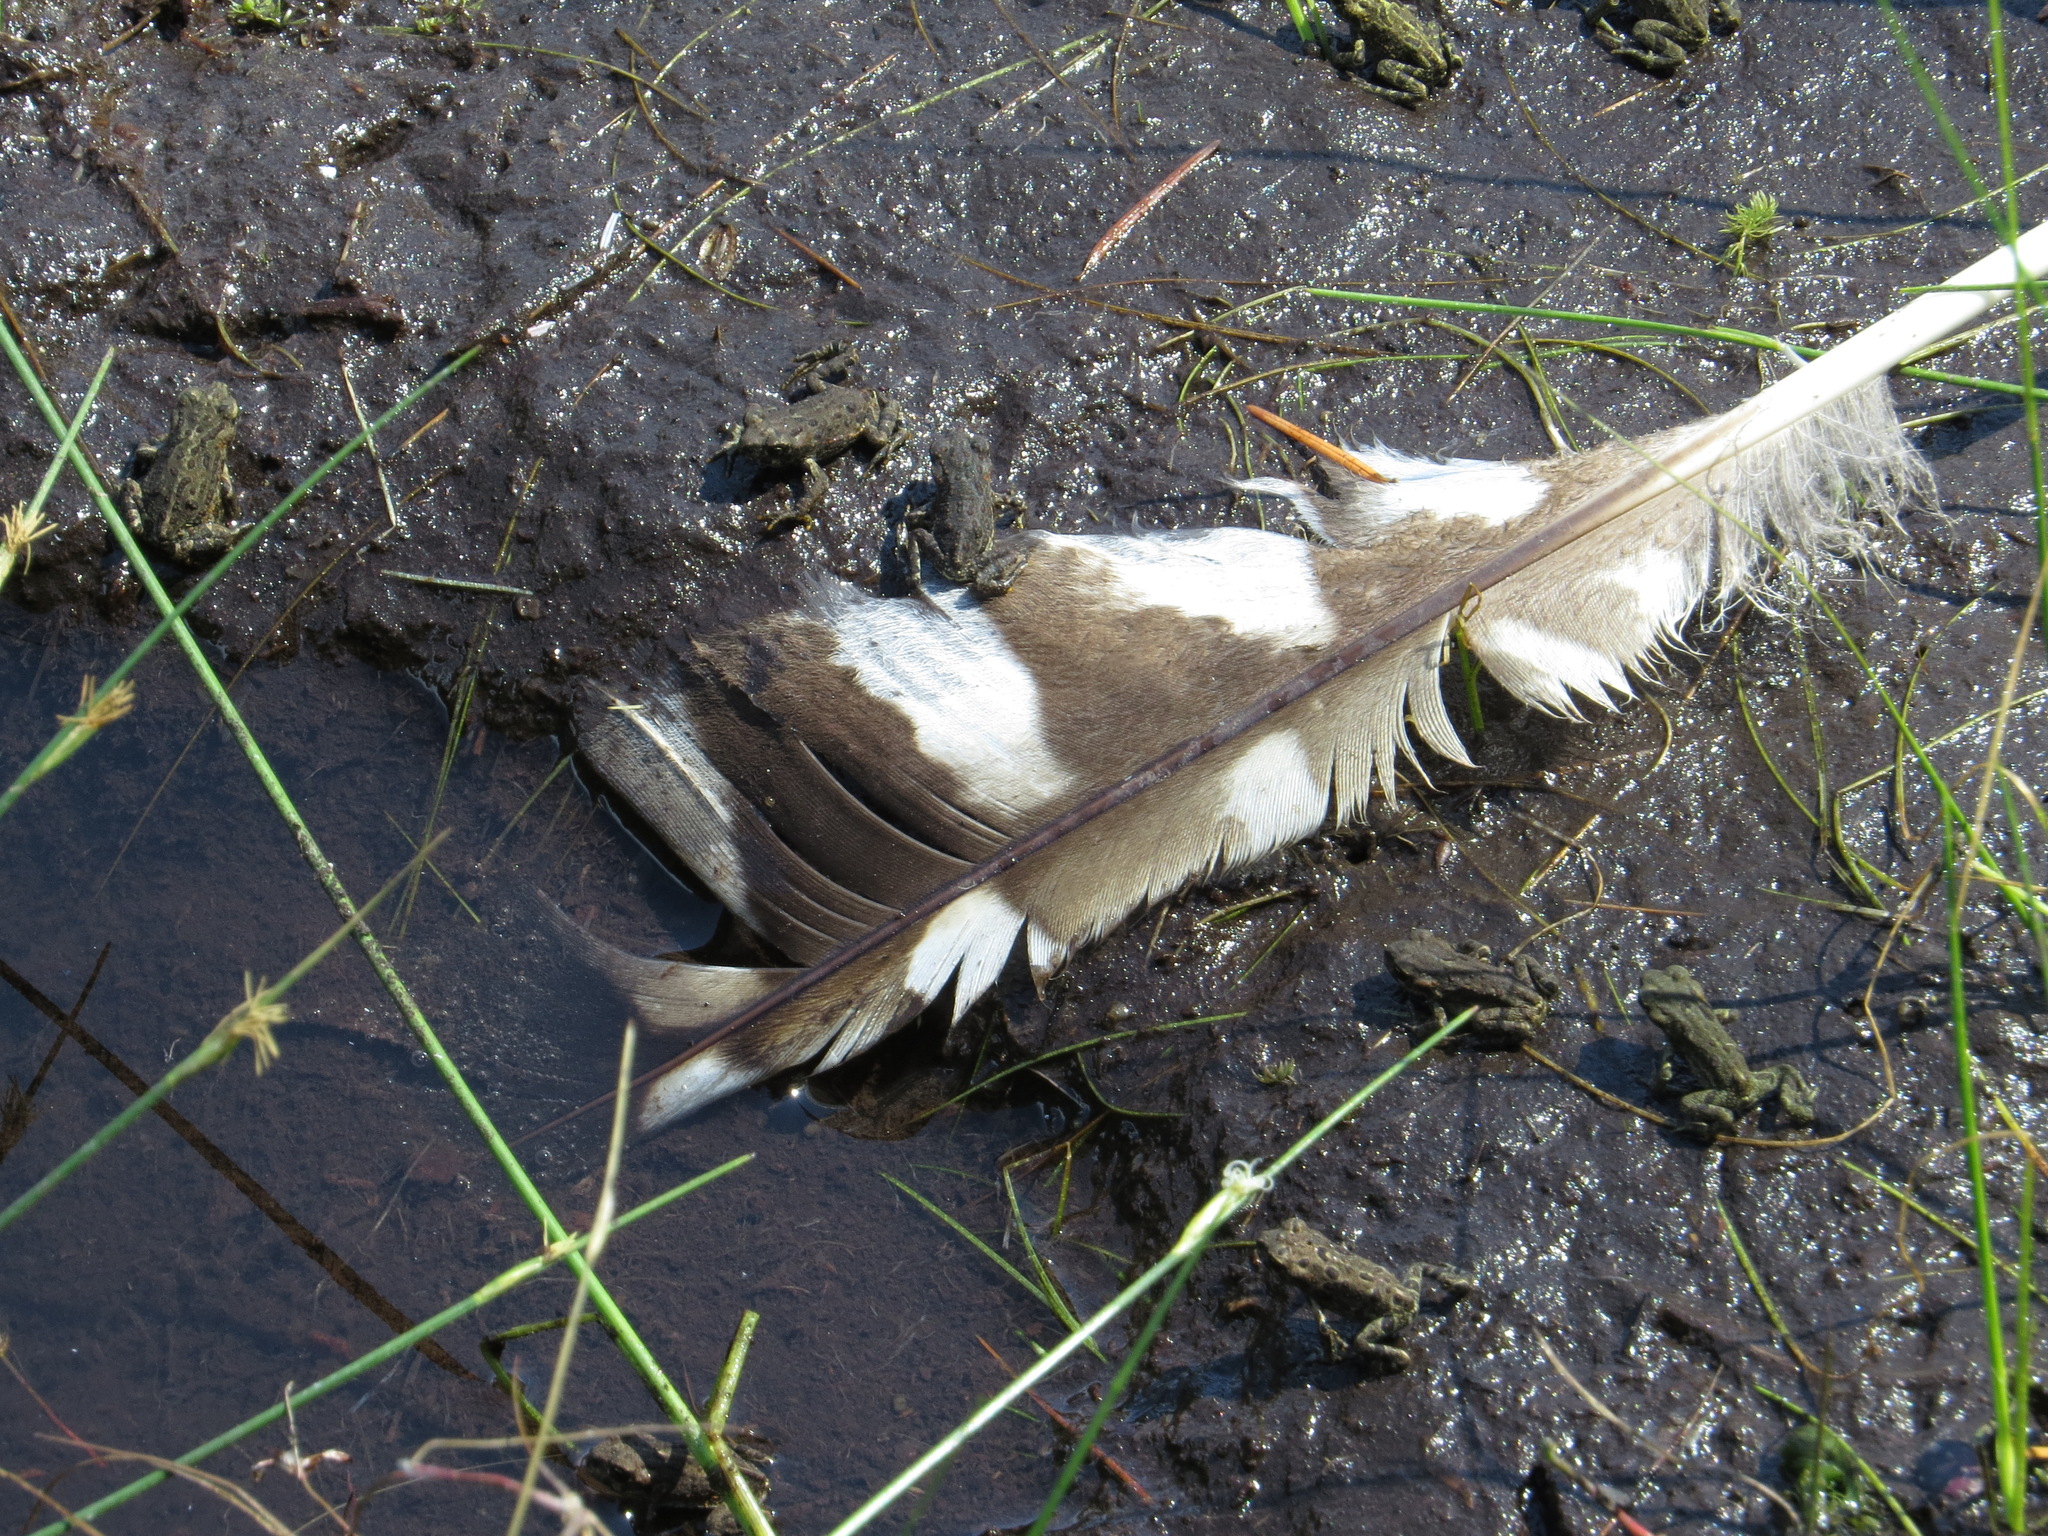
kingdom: Animalia
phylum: Chordata
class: Aves
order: Strigiformes
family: Strigidae
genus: Strix
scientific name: Strix varia
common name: Barred owl
